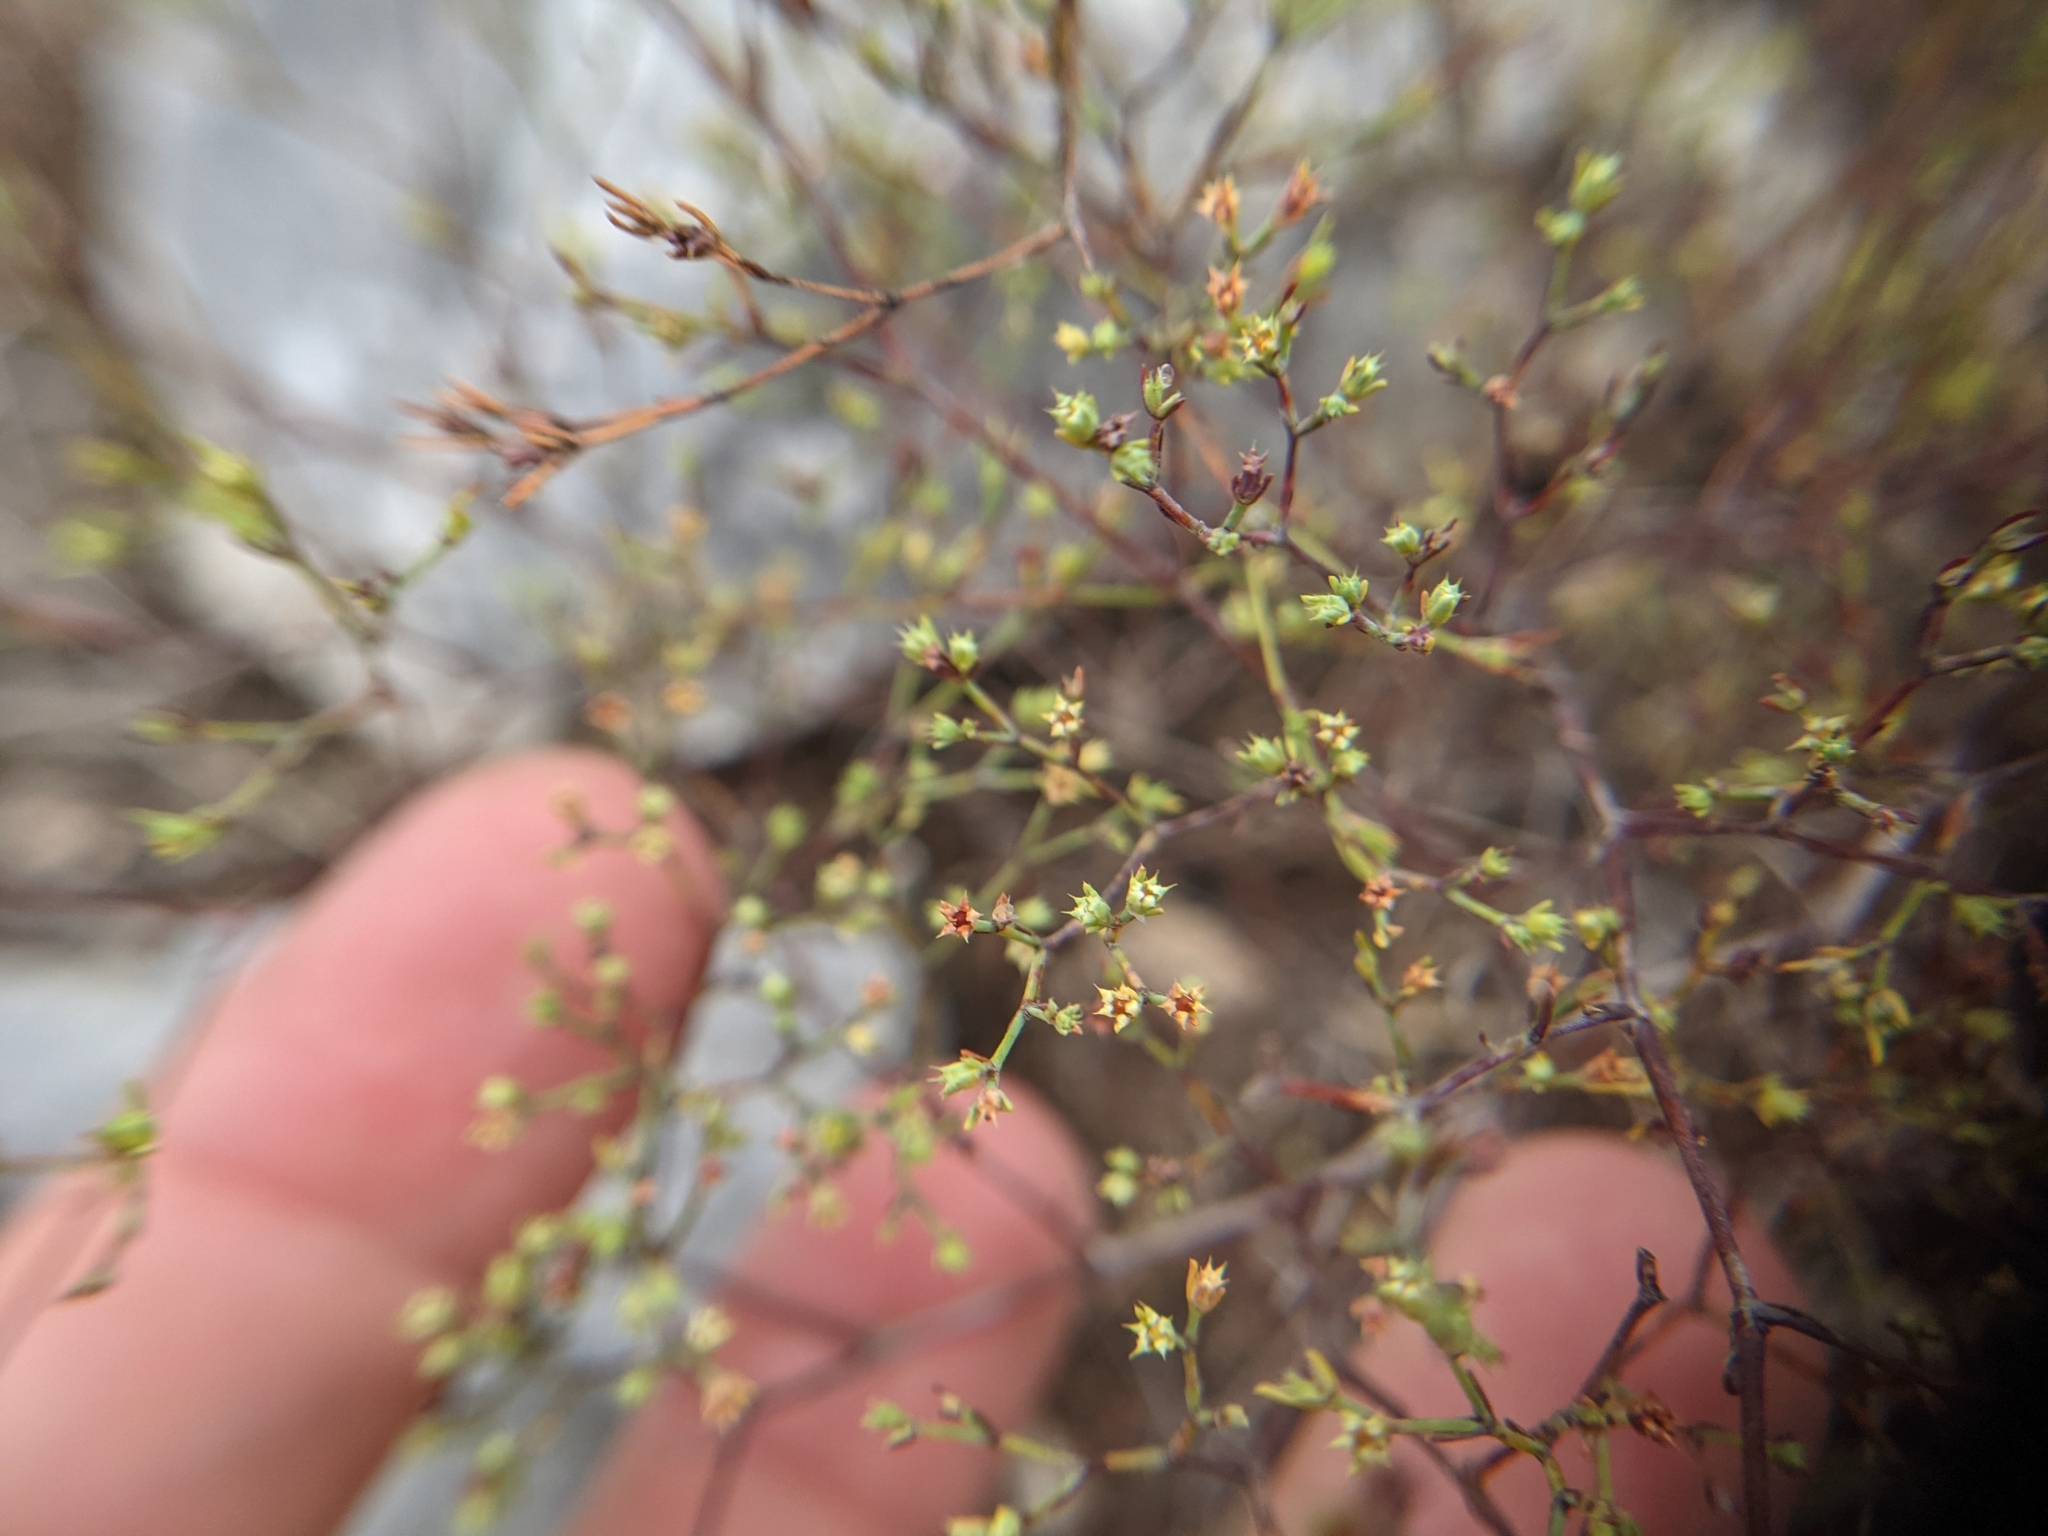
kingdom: Plantae
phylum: Tracheophyta
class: Magnoliopsida
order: Caryophyllales
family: Caryophyllaceae
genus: Paronychia
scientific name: Paronychia lindheimeri
